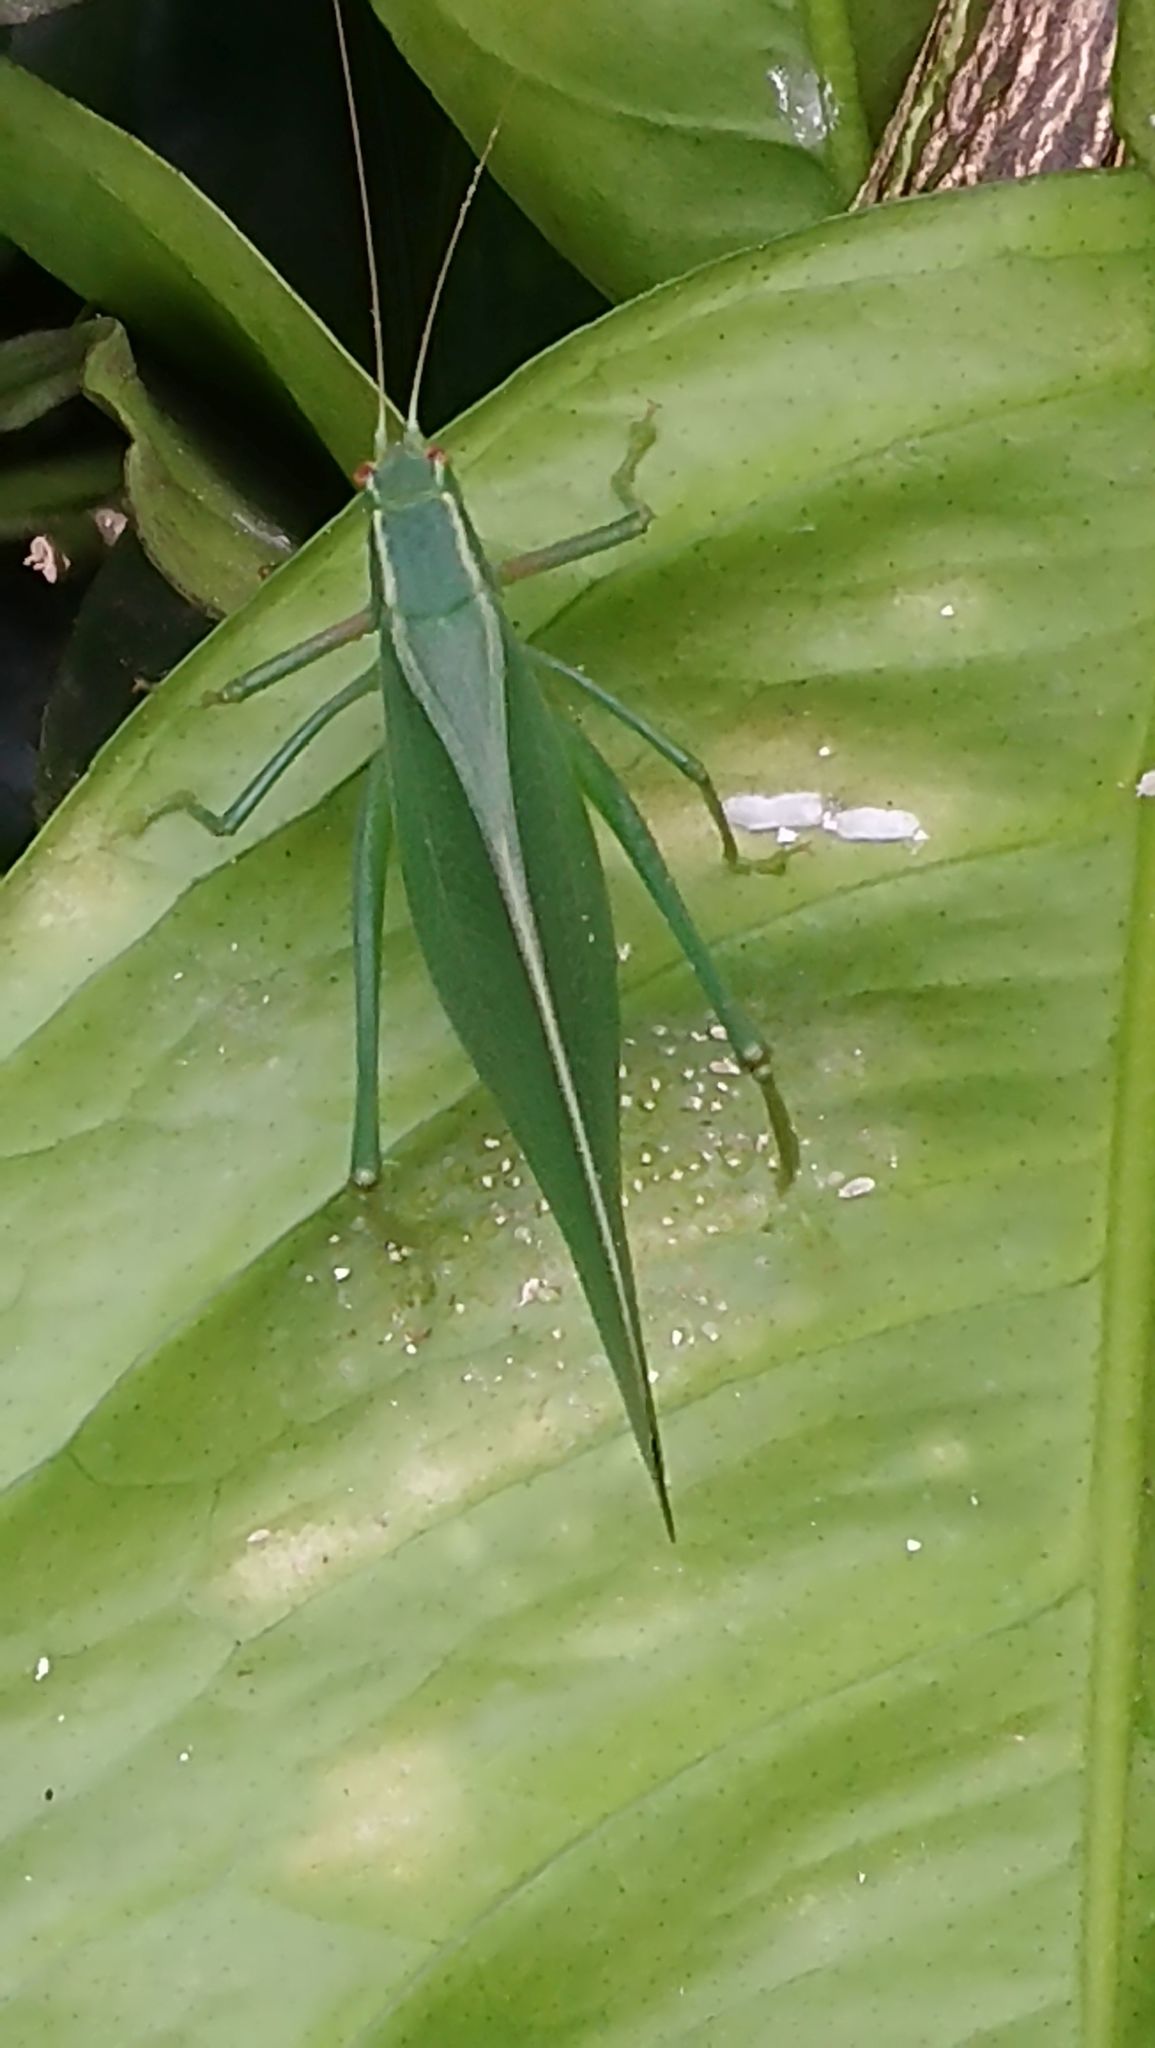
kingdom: Animalia
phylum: Arthropoda
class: Insecta
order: Orthoptera
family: Tettigoniidae
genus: Caedicia
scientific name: Caedicia simplex
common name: Common garden katydid
